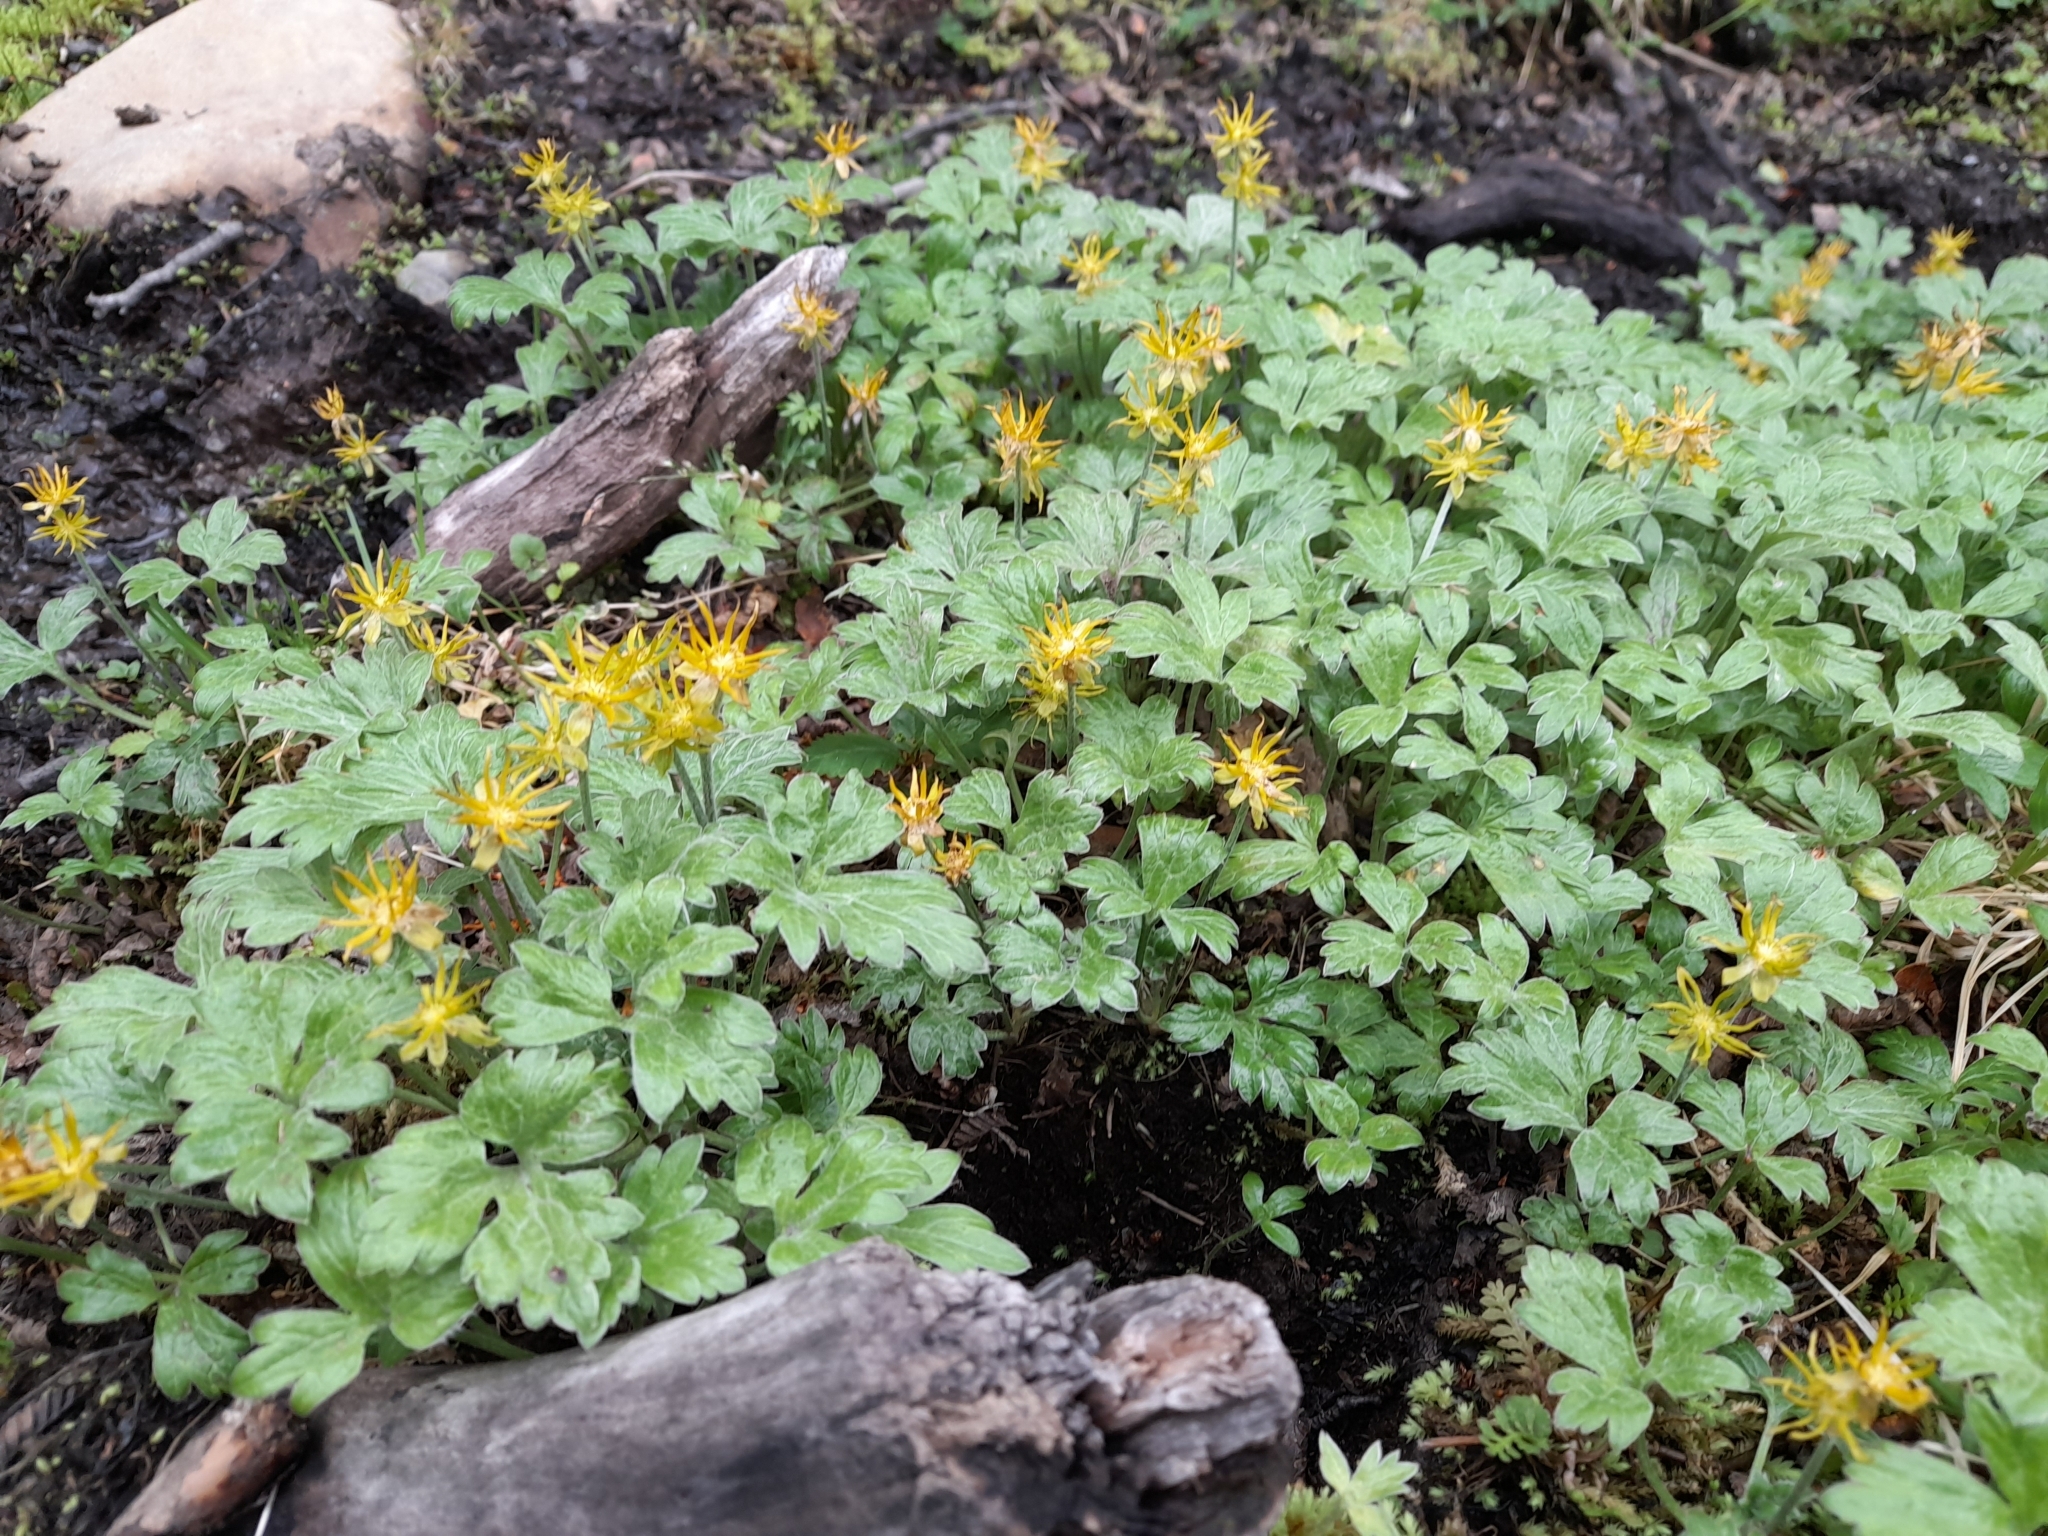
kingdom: Plantae
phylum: Tracheophyta
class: Magnoliopsida
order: Ranunculales
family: Ranunculaceae
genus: Hamadryas
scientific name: Hamadryas magellanica
